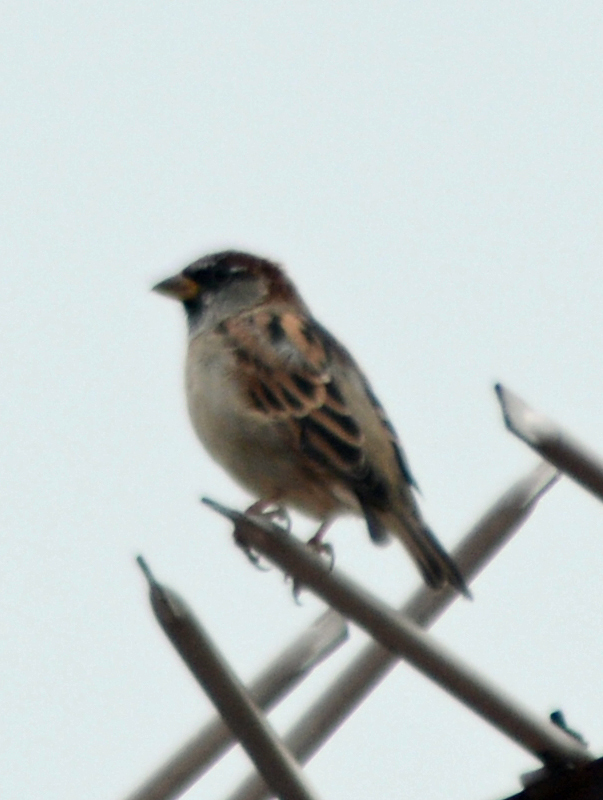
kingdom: Animalia
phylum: Chordata
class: Aves
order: Passeriformes
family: Passeridae
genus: Passer
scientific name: Passer domesticus
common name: House sparrow
